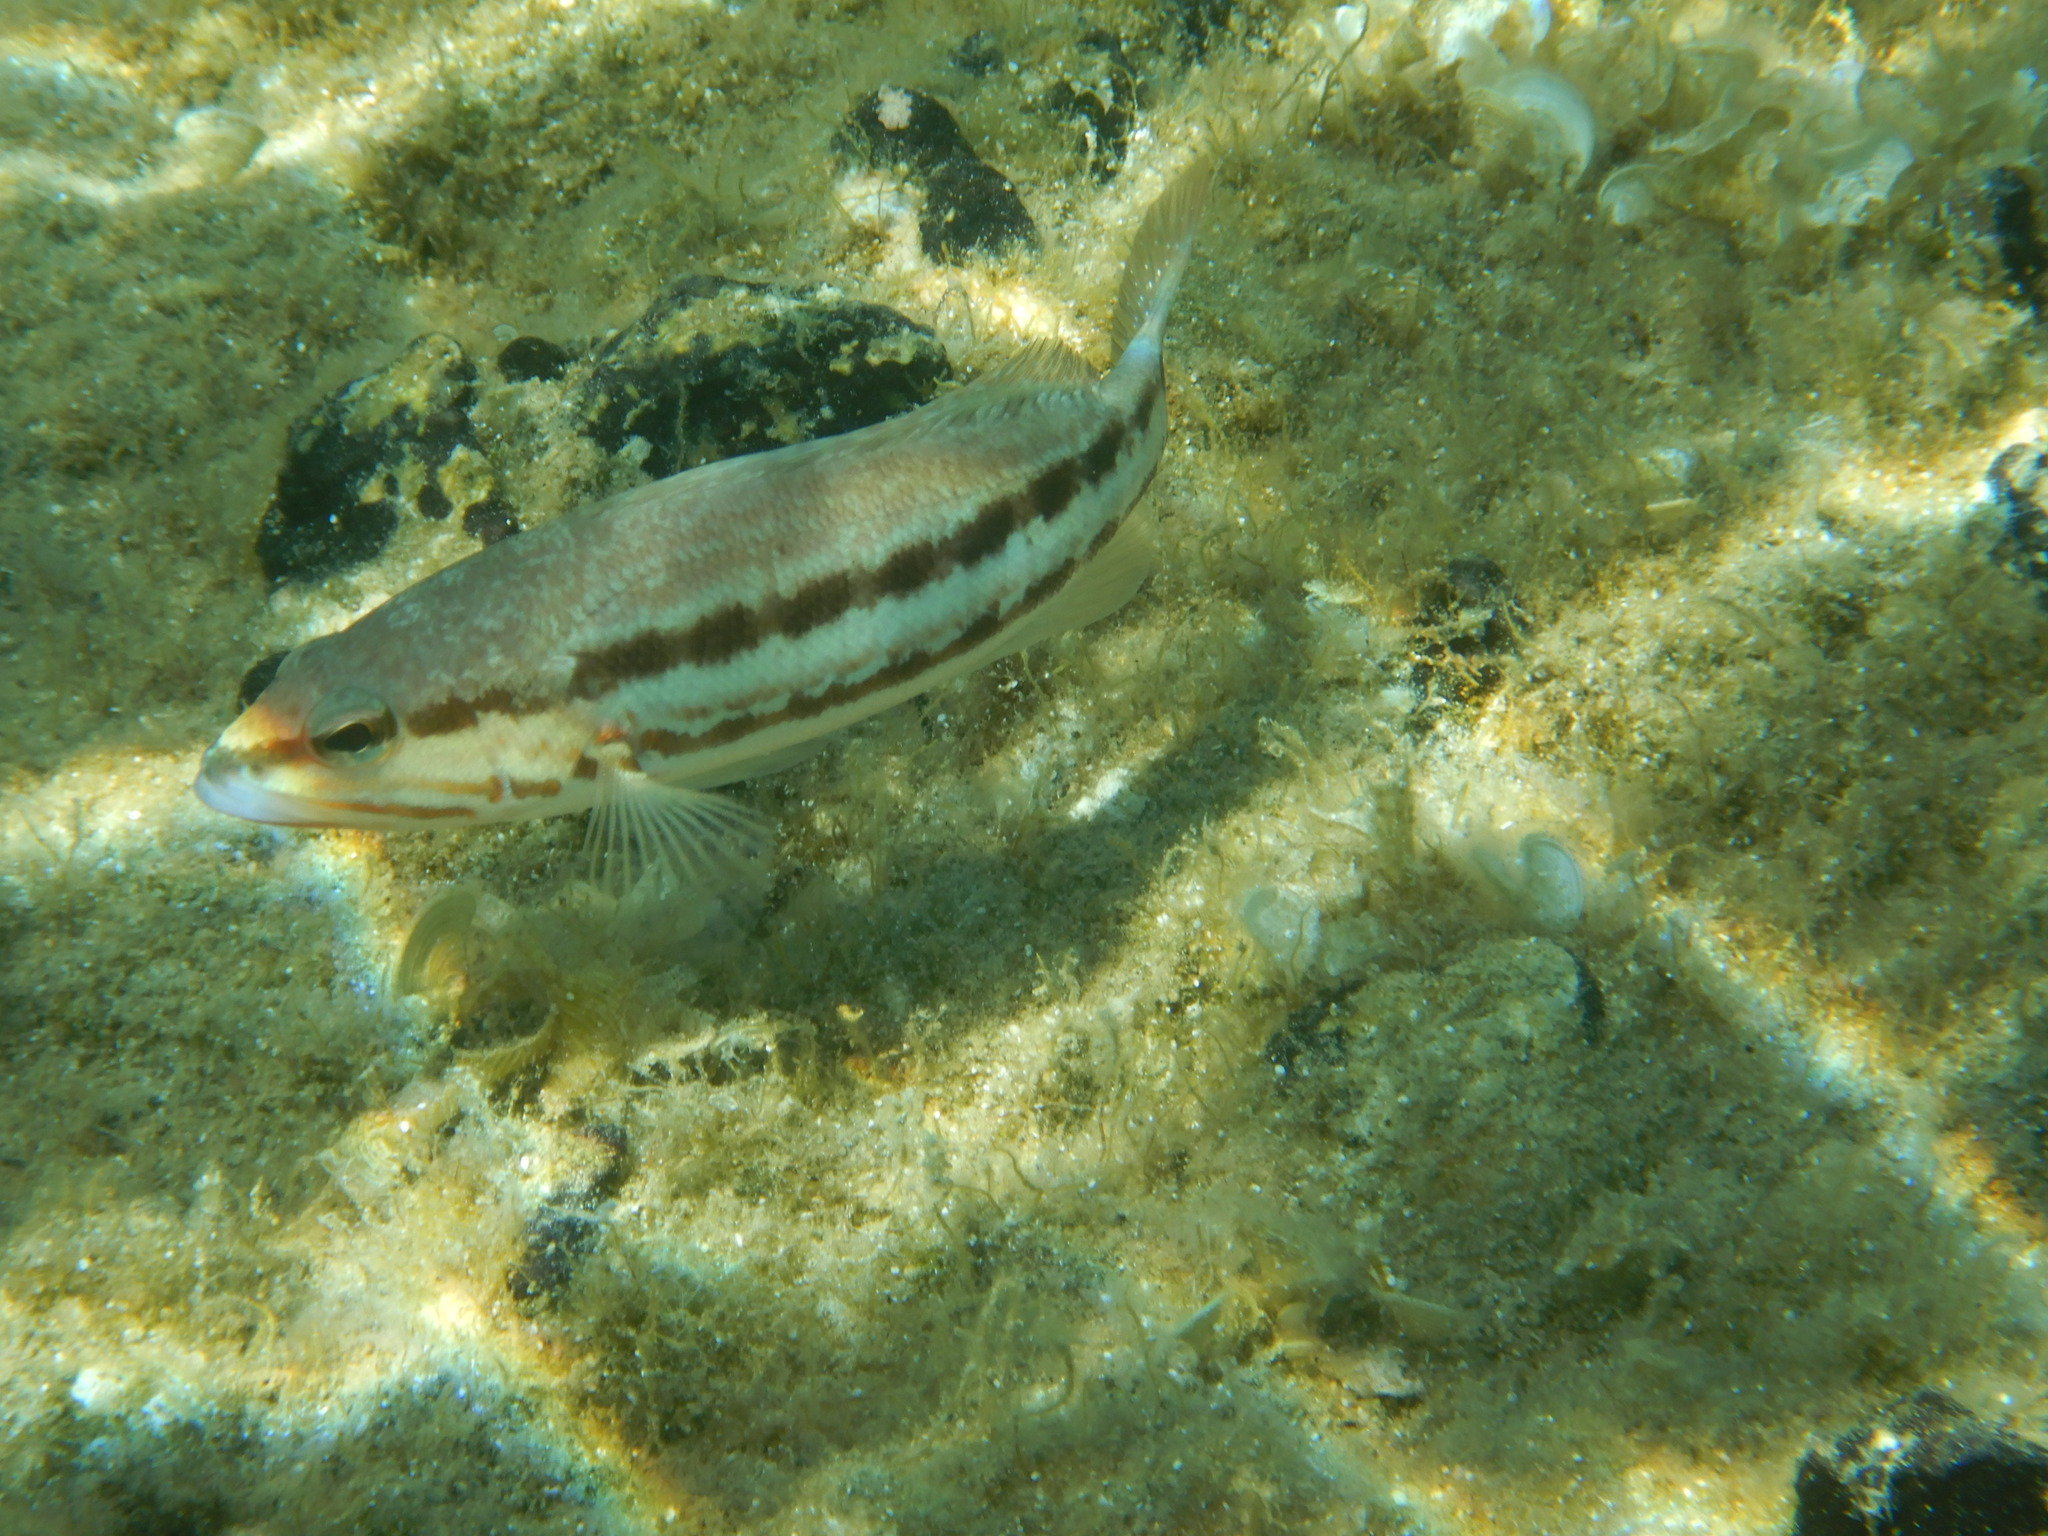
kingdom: Animalia
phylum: Chordata
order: Perciformes
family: Serranidae
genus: Serranus
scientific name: Serranus cabrilla
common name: Comber
